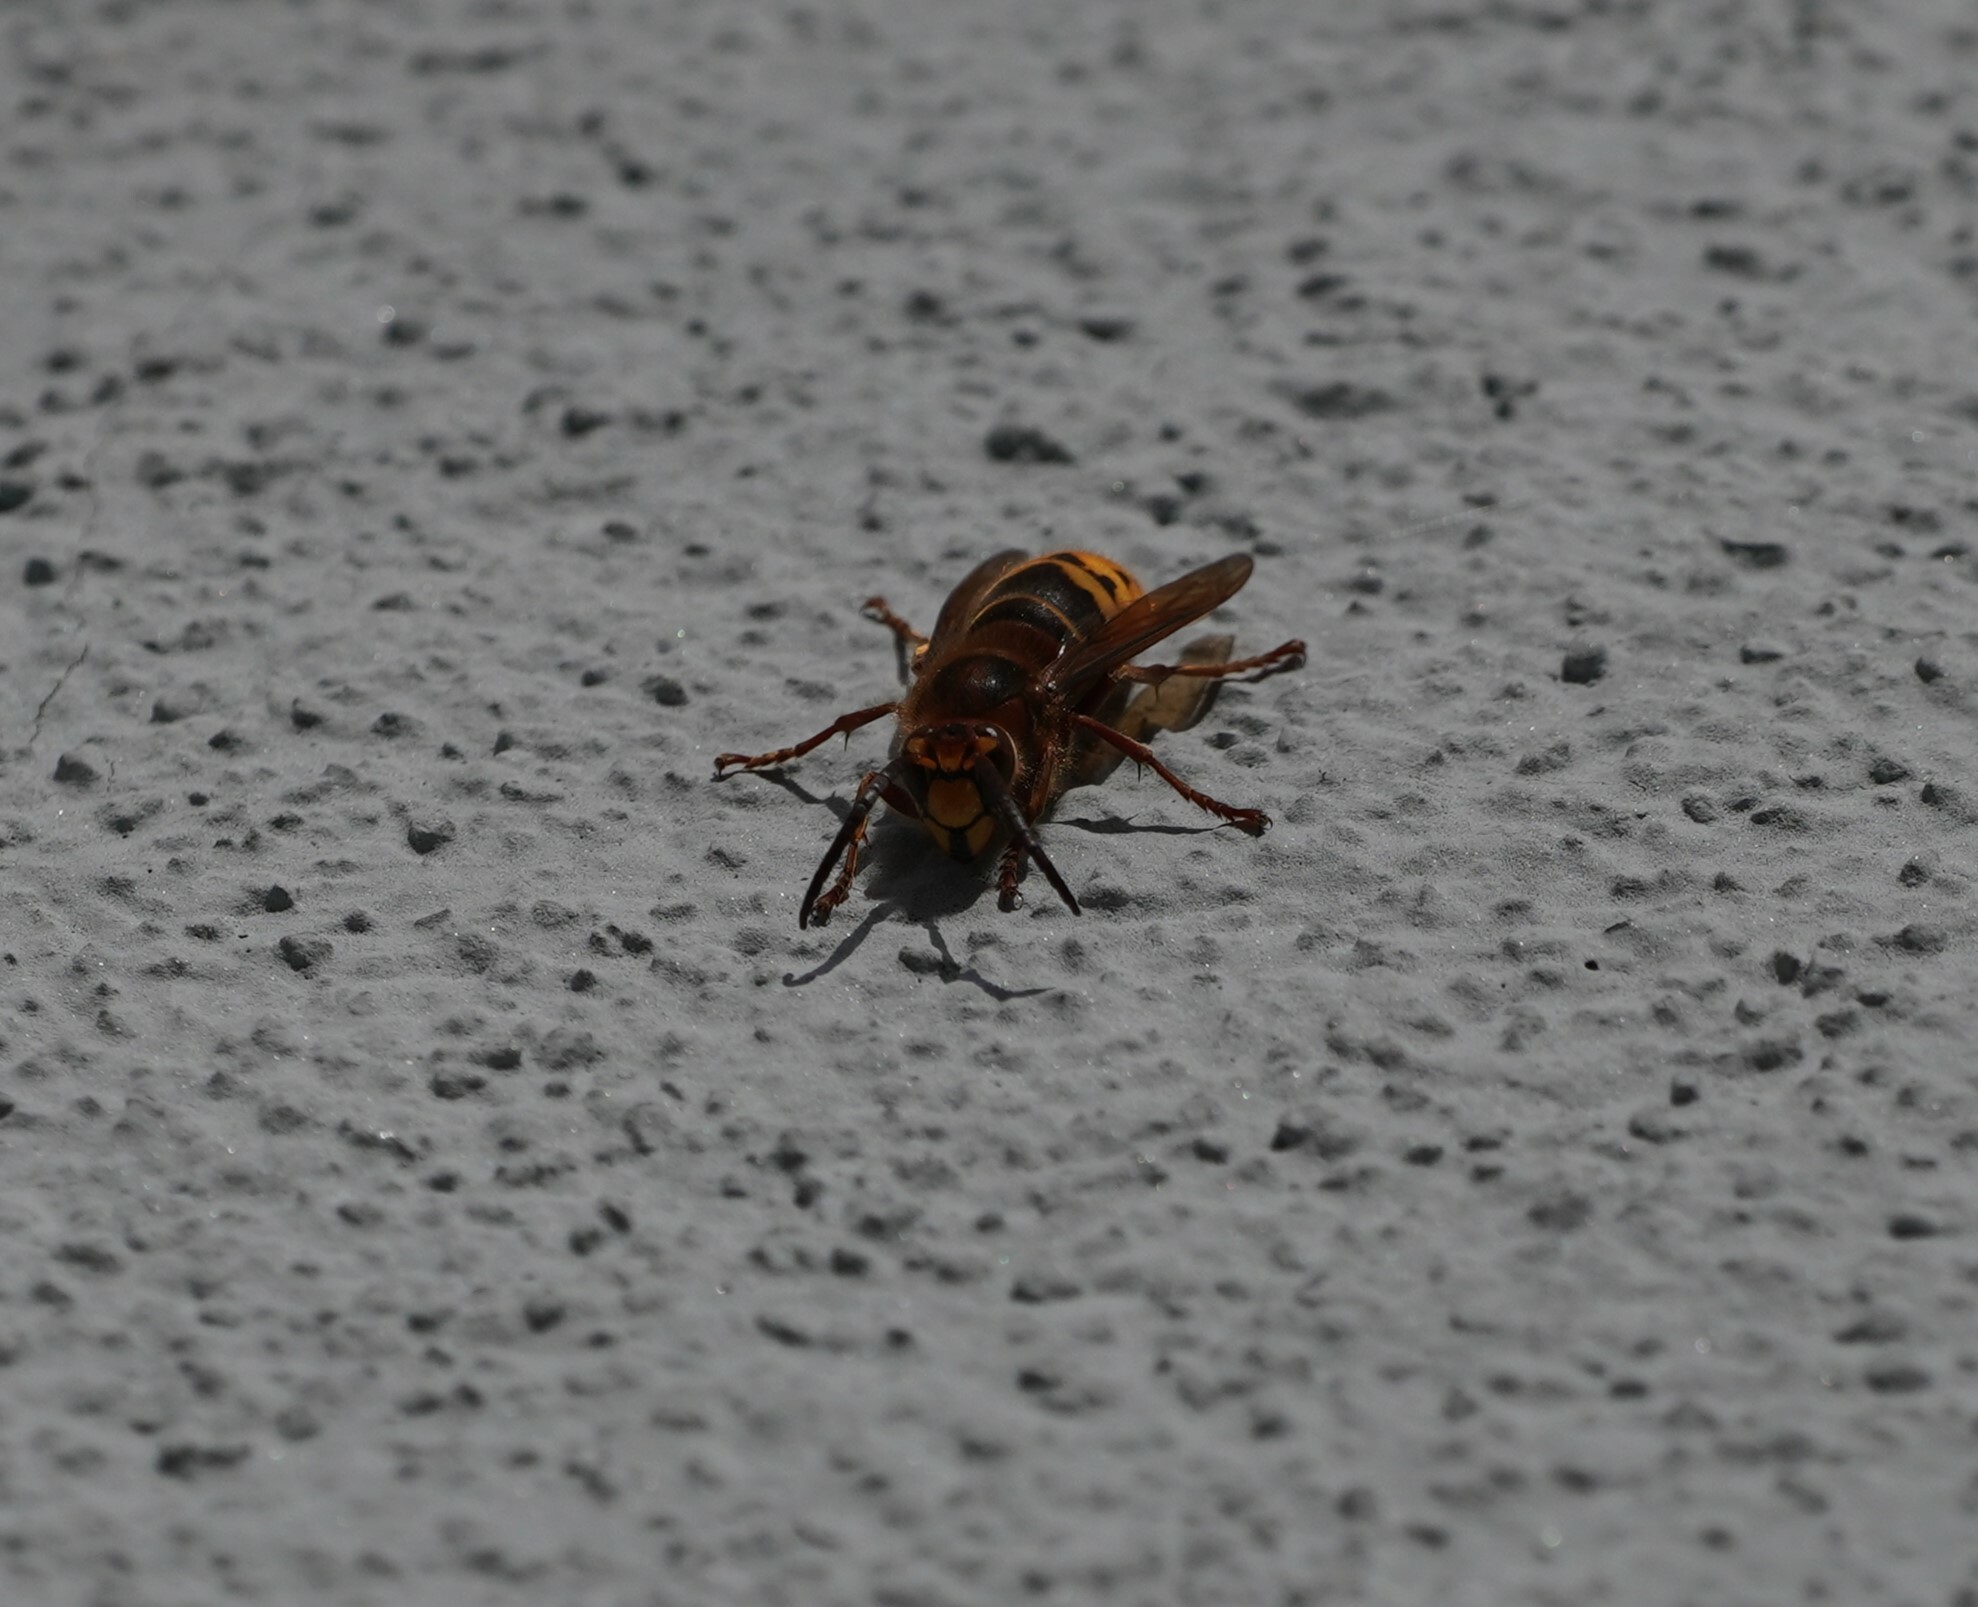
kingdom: Animalia
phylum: Arthropoda
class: Insecta
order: Hymenoptera
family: Vespidae
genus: Vespa
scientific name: Vespa crabro
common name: Hornet
